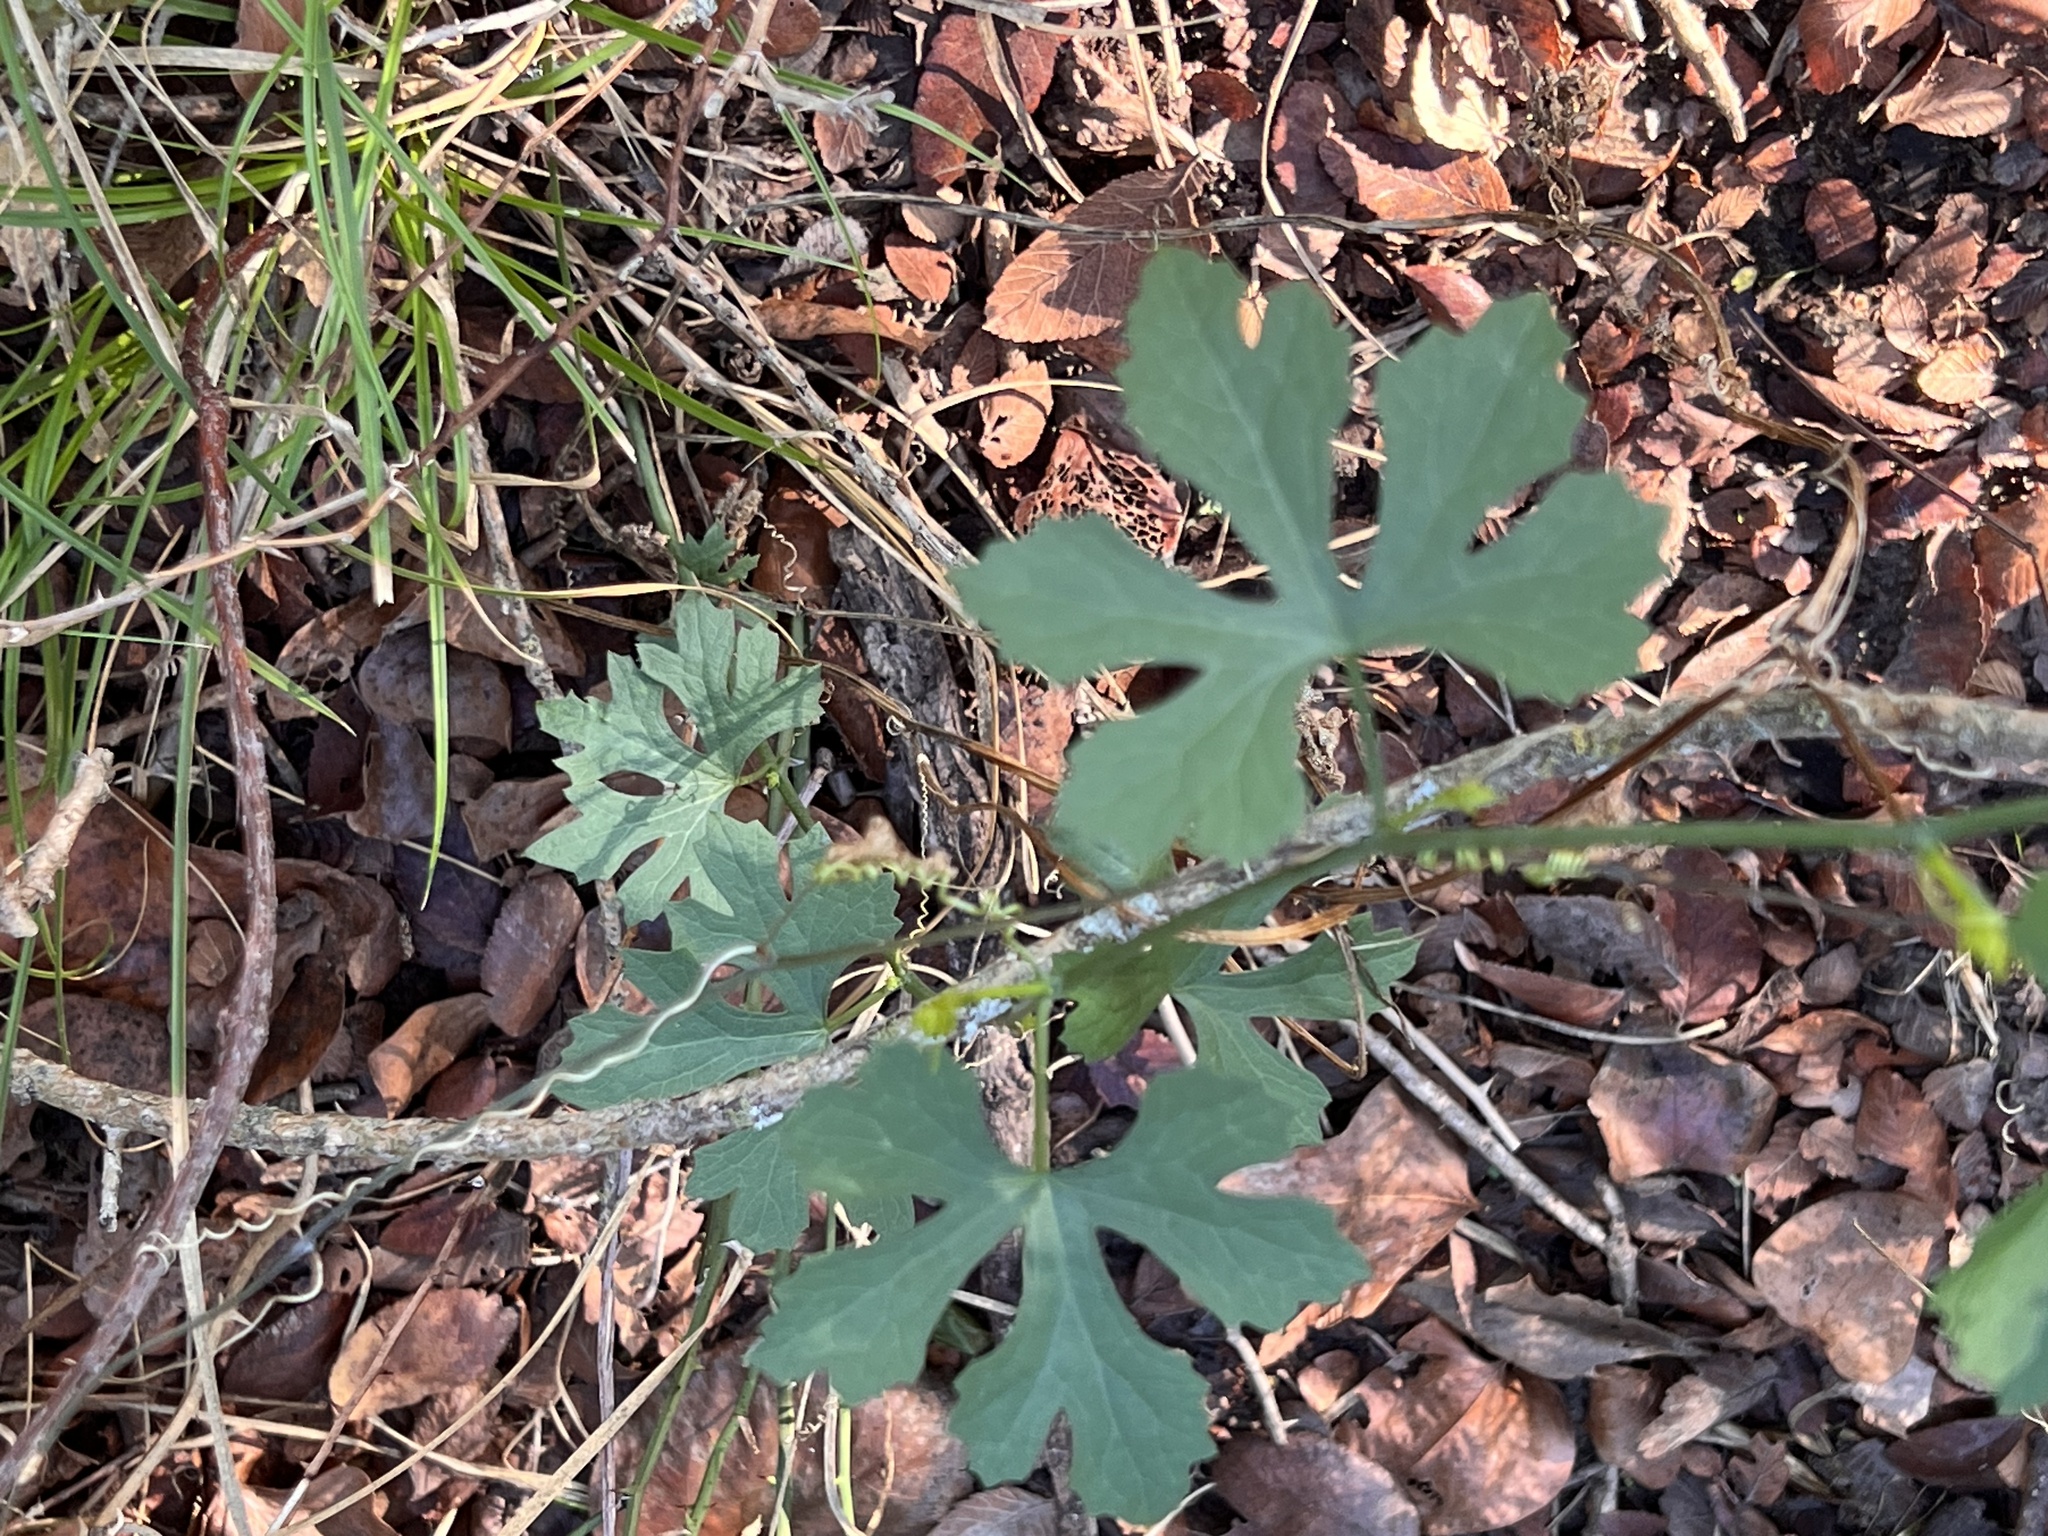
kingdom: Plantae
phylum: Tracheophyta
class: Magnoliopsida
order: Cucurbitales
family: Cucurbitaceae
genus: Ibervillea
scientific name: Ibervillea lindheimeri
